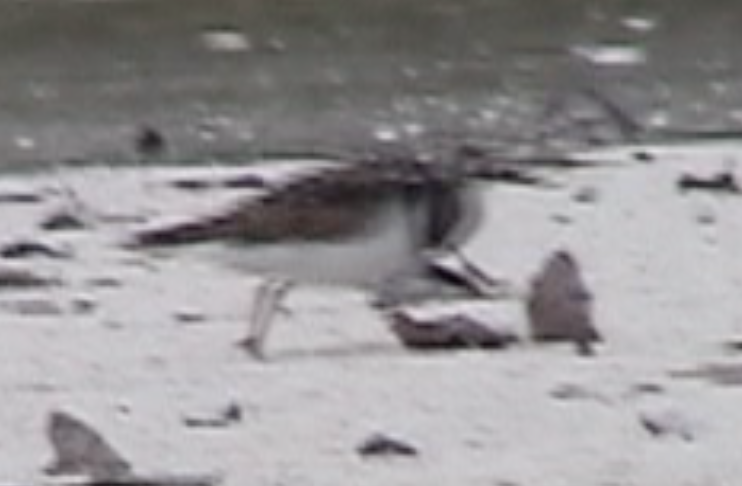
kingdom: Animalia
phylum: Chordata
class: Aves
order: Charadriiformes
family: Scolopacidae
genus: Arenaria
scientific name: Arenaria interpres
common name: Ruddy turnstone
